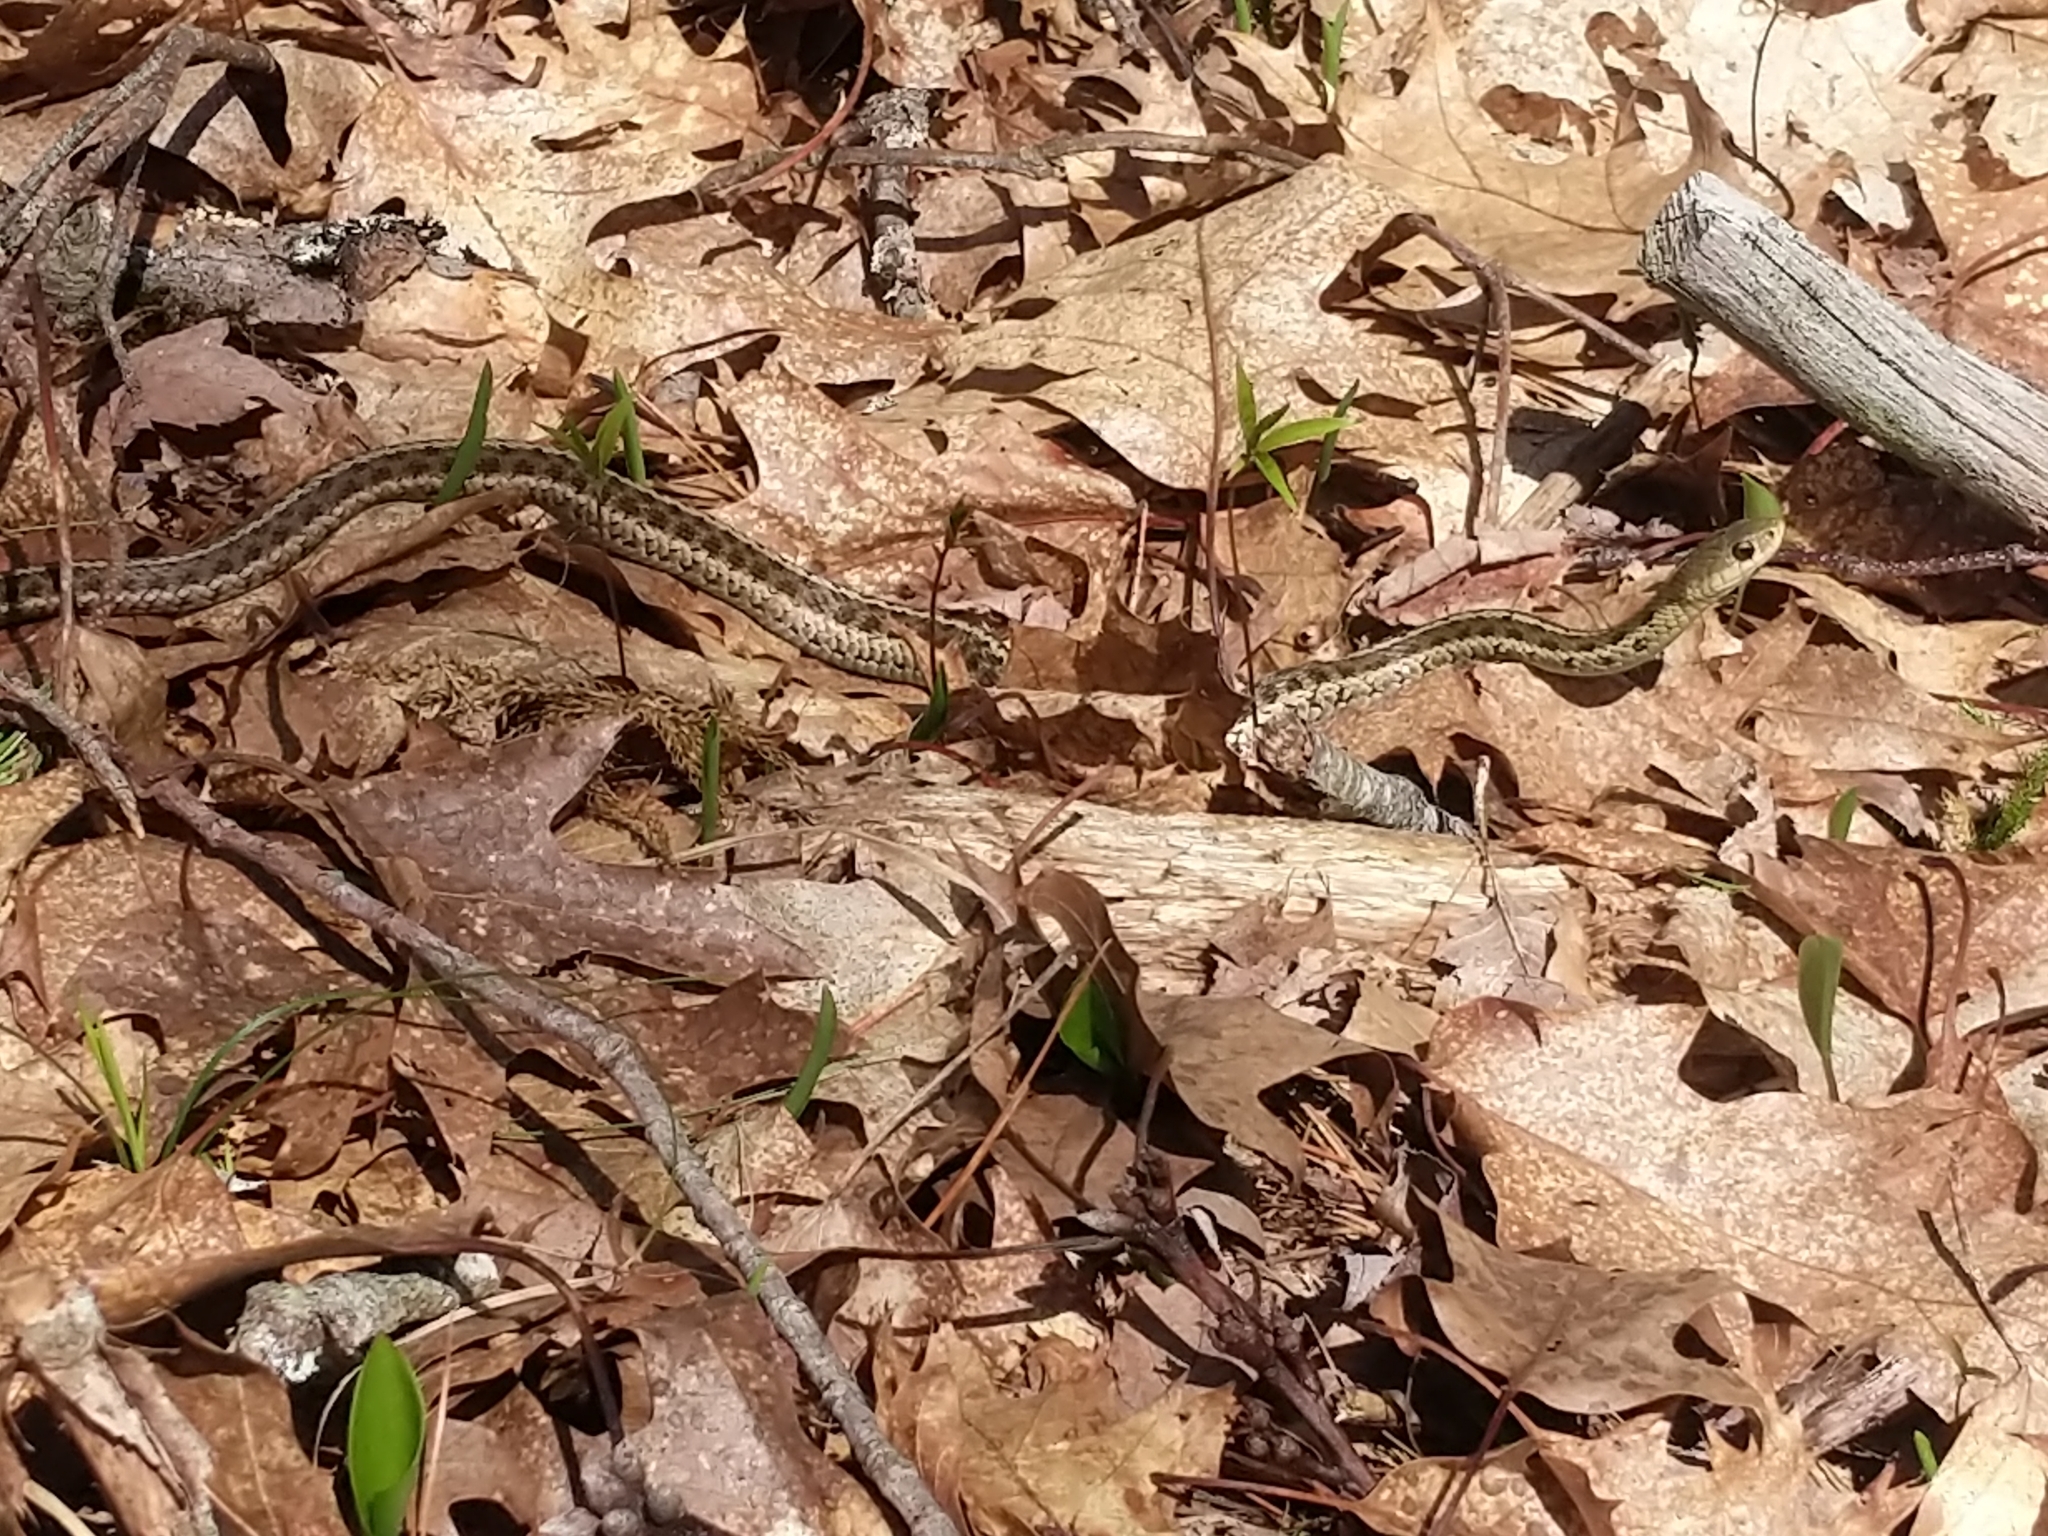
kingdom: Animalia
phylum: Chordata
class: Squamata
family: Colubridae
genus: Thamnophis
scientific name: Thamnophis sirtalis
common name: Common garter snake
